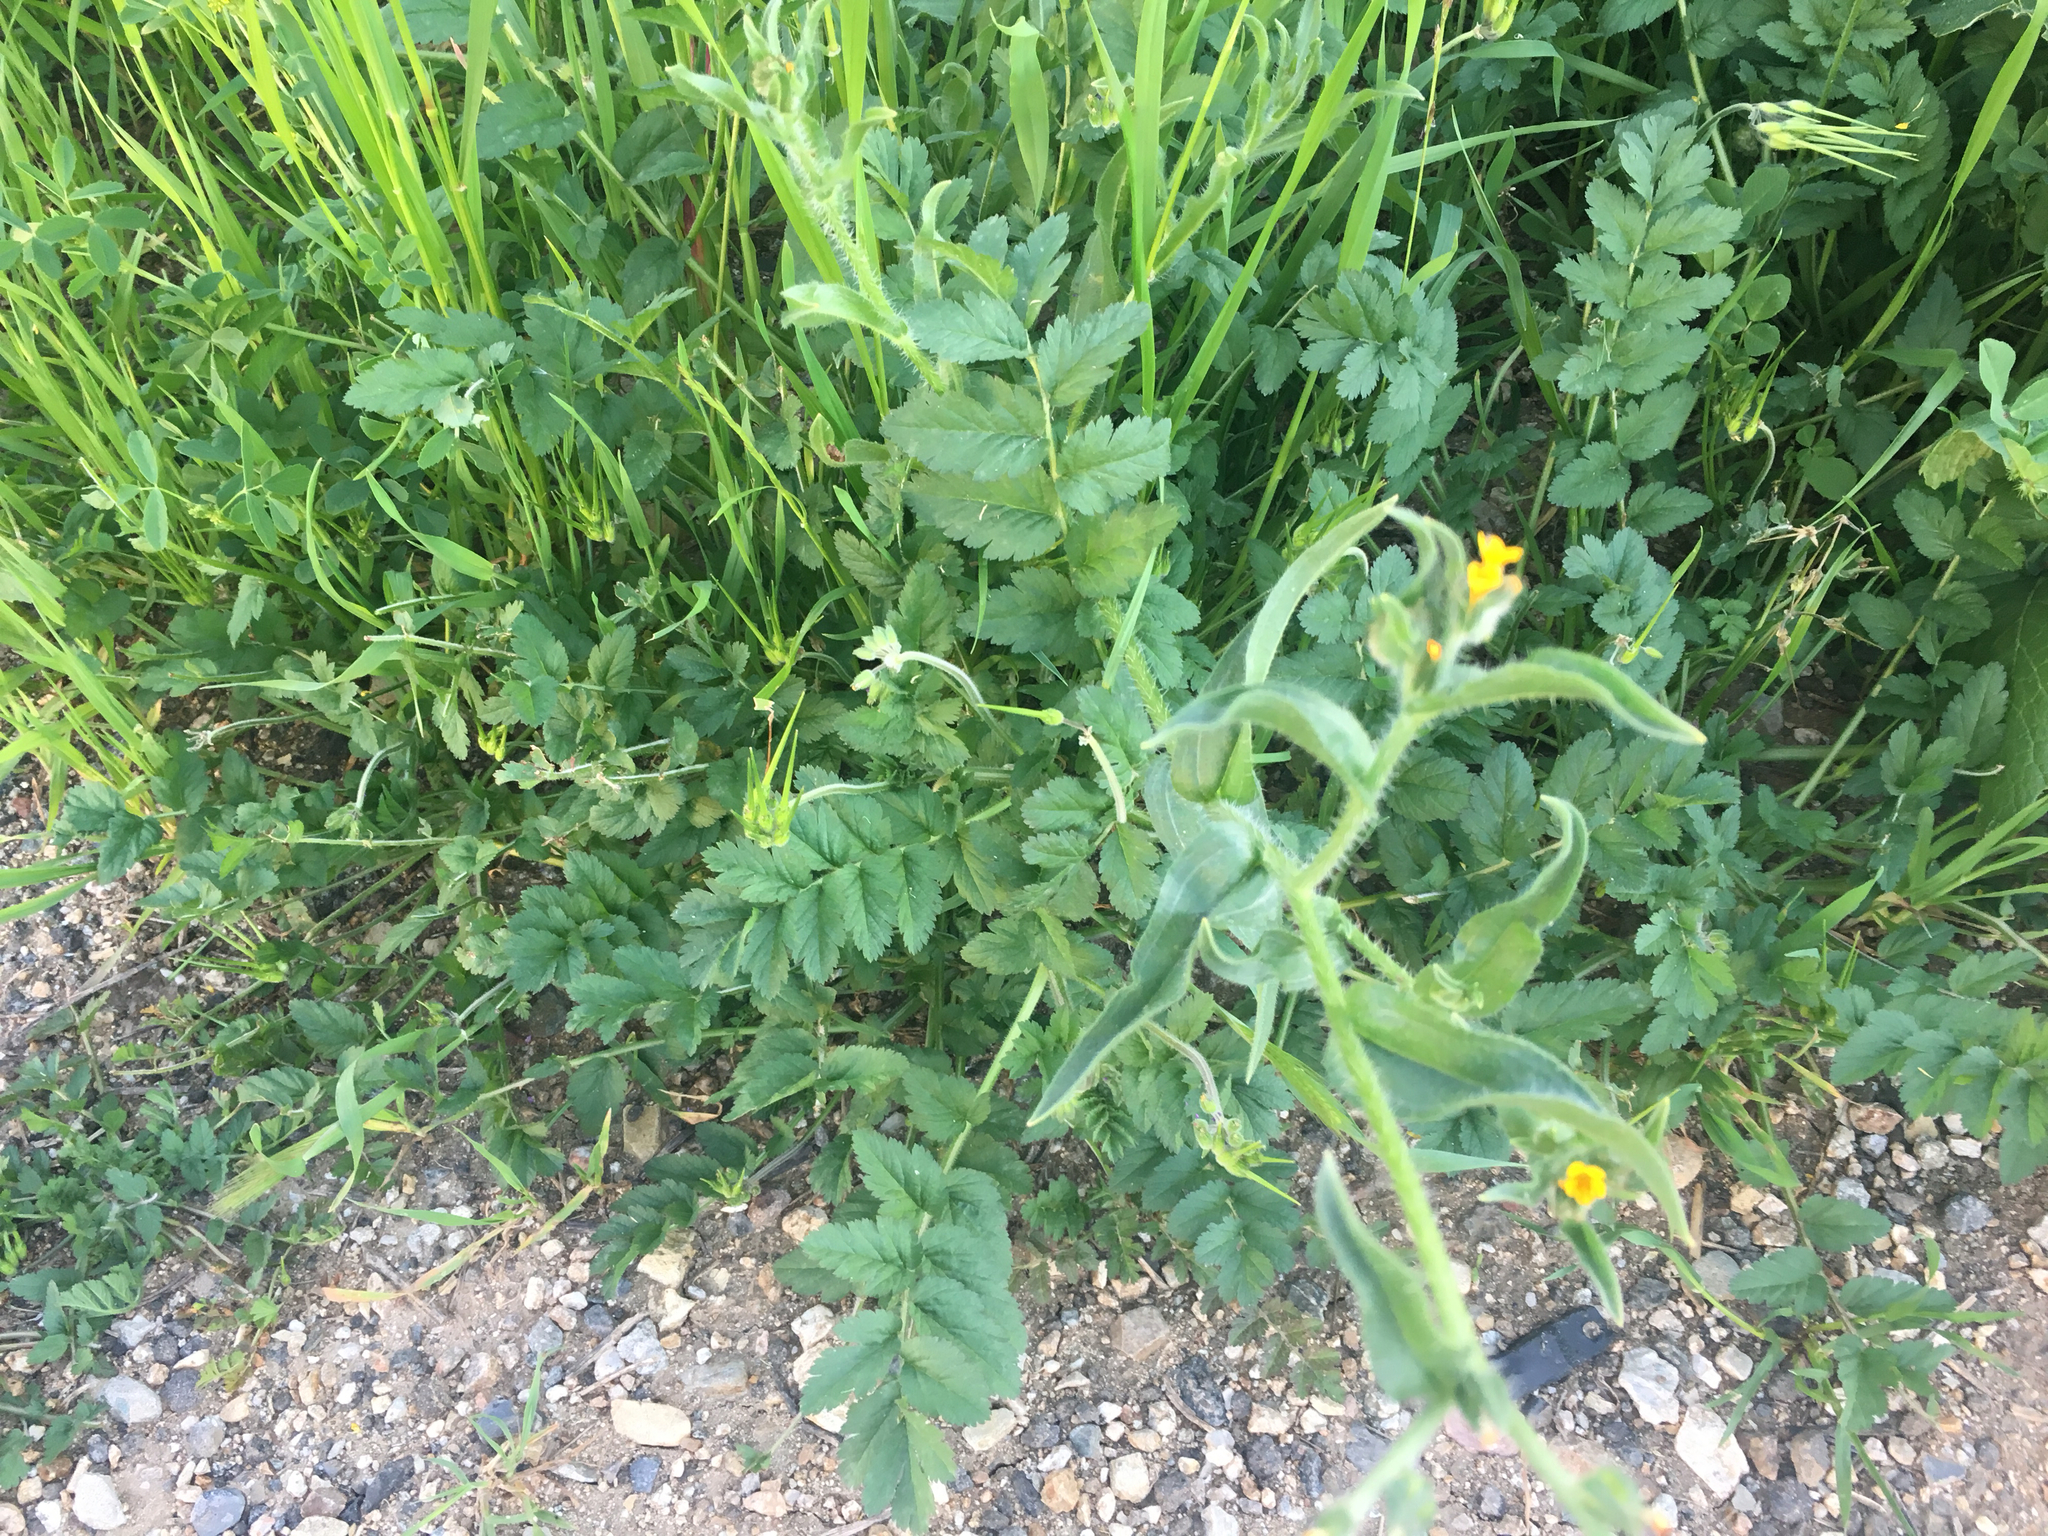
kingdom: Plantae
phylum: Tracheophyta
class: Magnoliopsida
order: Geraniales
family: Geraniaceae
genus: Erodium
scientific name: Erodium moschatum
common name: Musk stork's-bill
